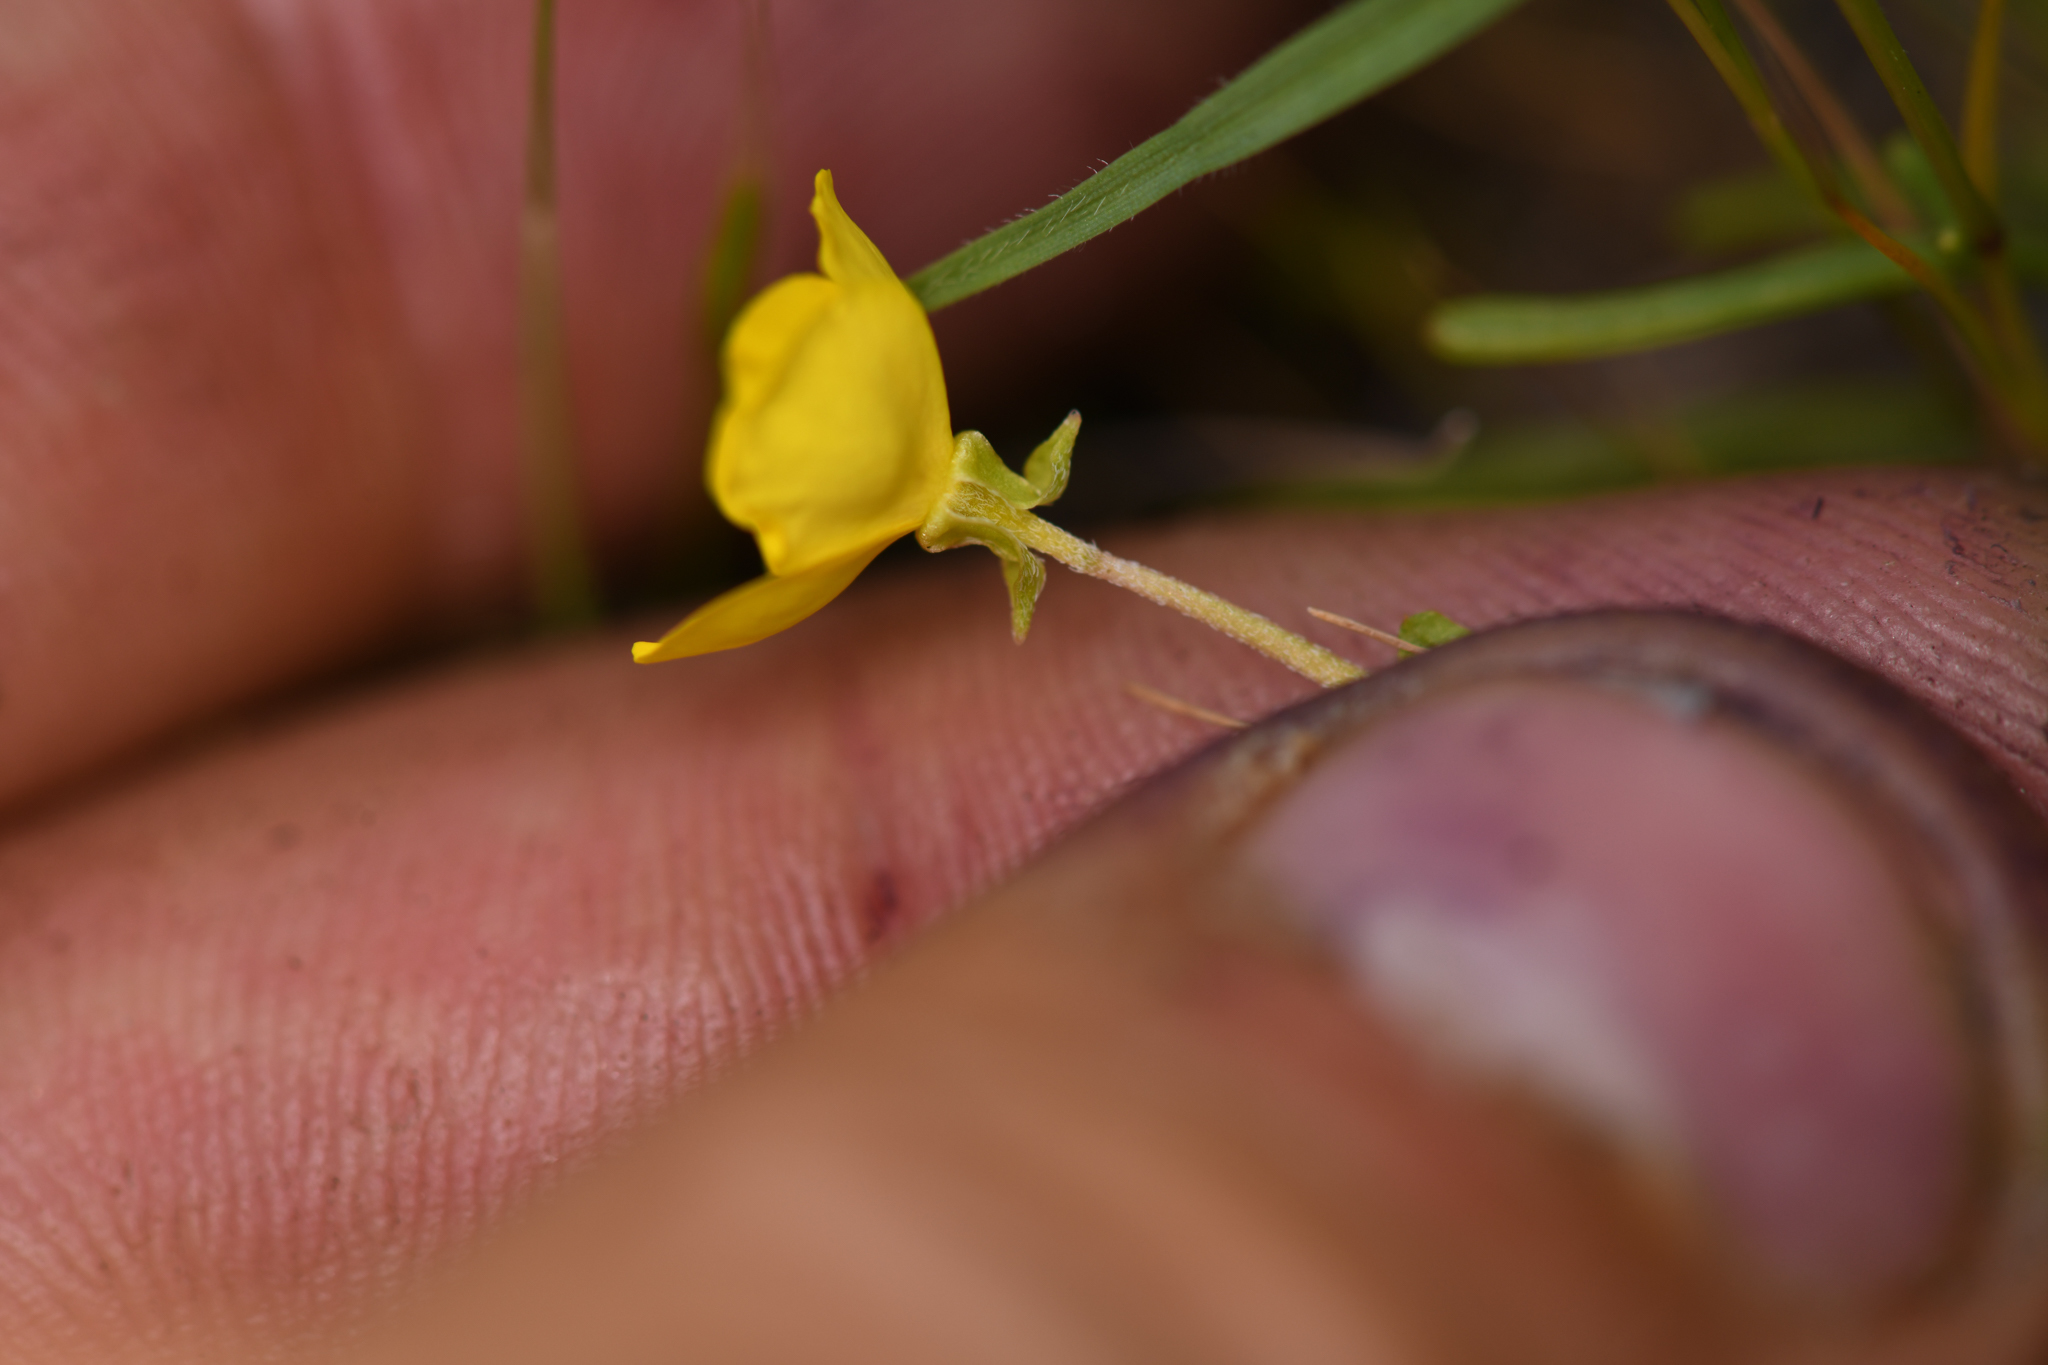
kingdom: Plantae
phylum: Tracheophyta
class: Magnoliopsida
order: Myrtales
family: Onagraceae
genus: Camissoniopsis
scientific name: Camissoniopsis bistorta
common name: Southern suncup
